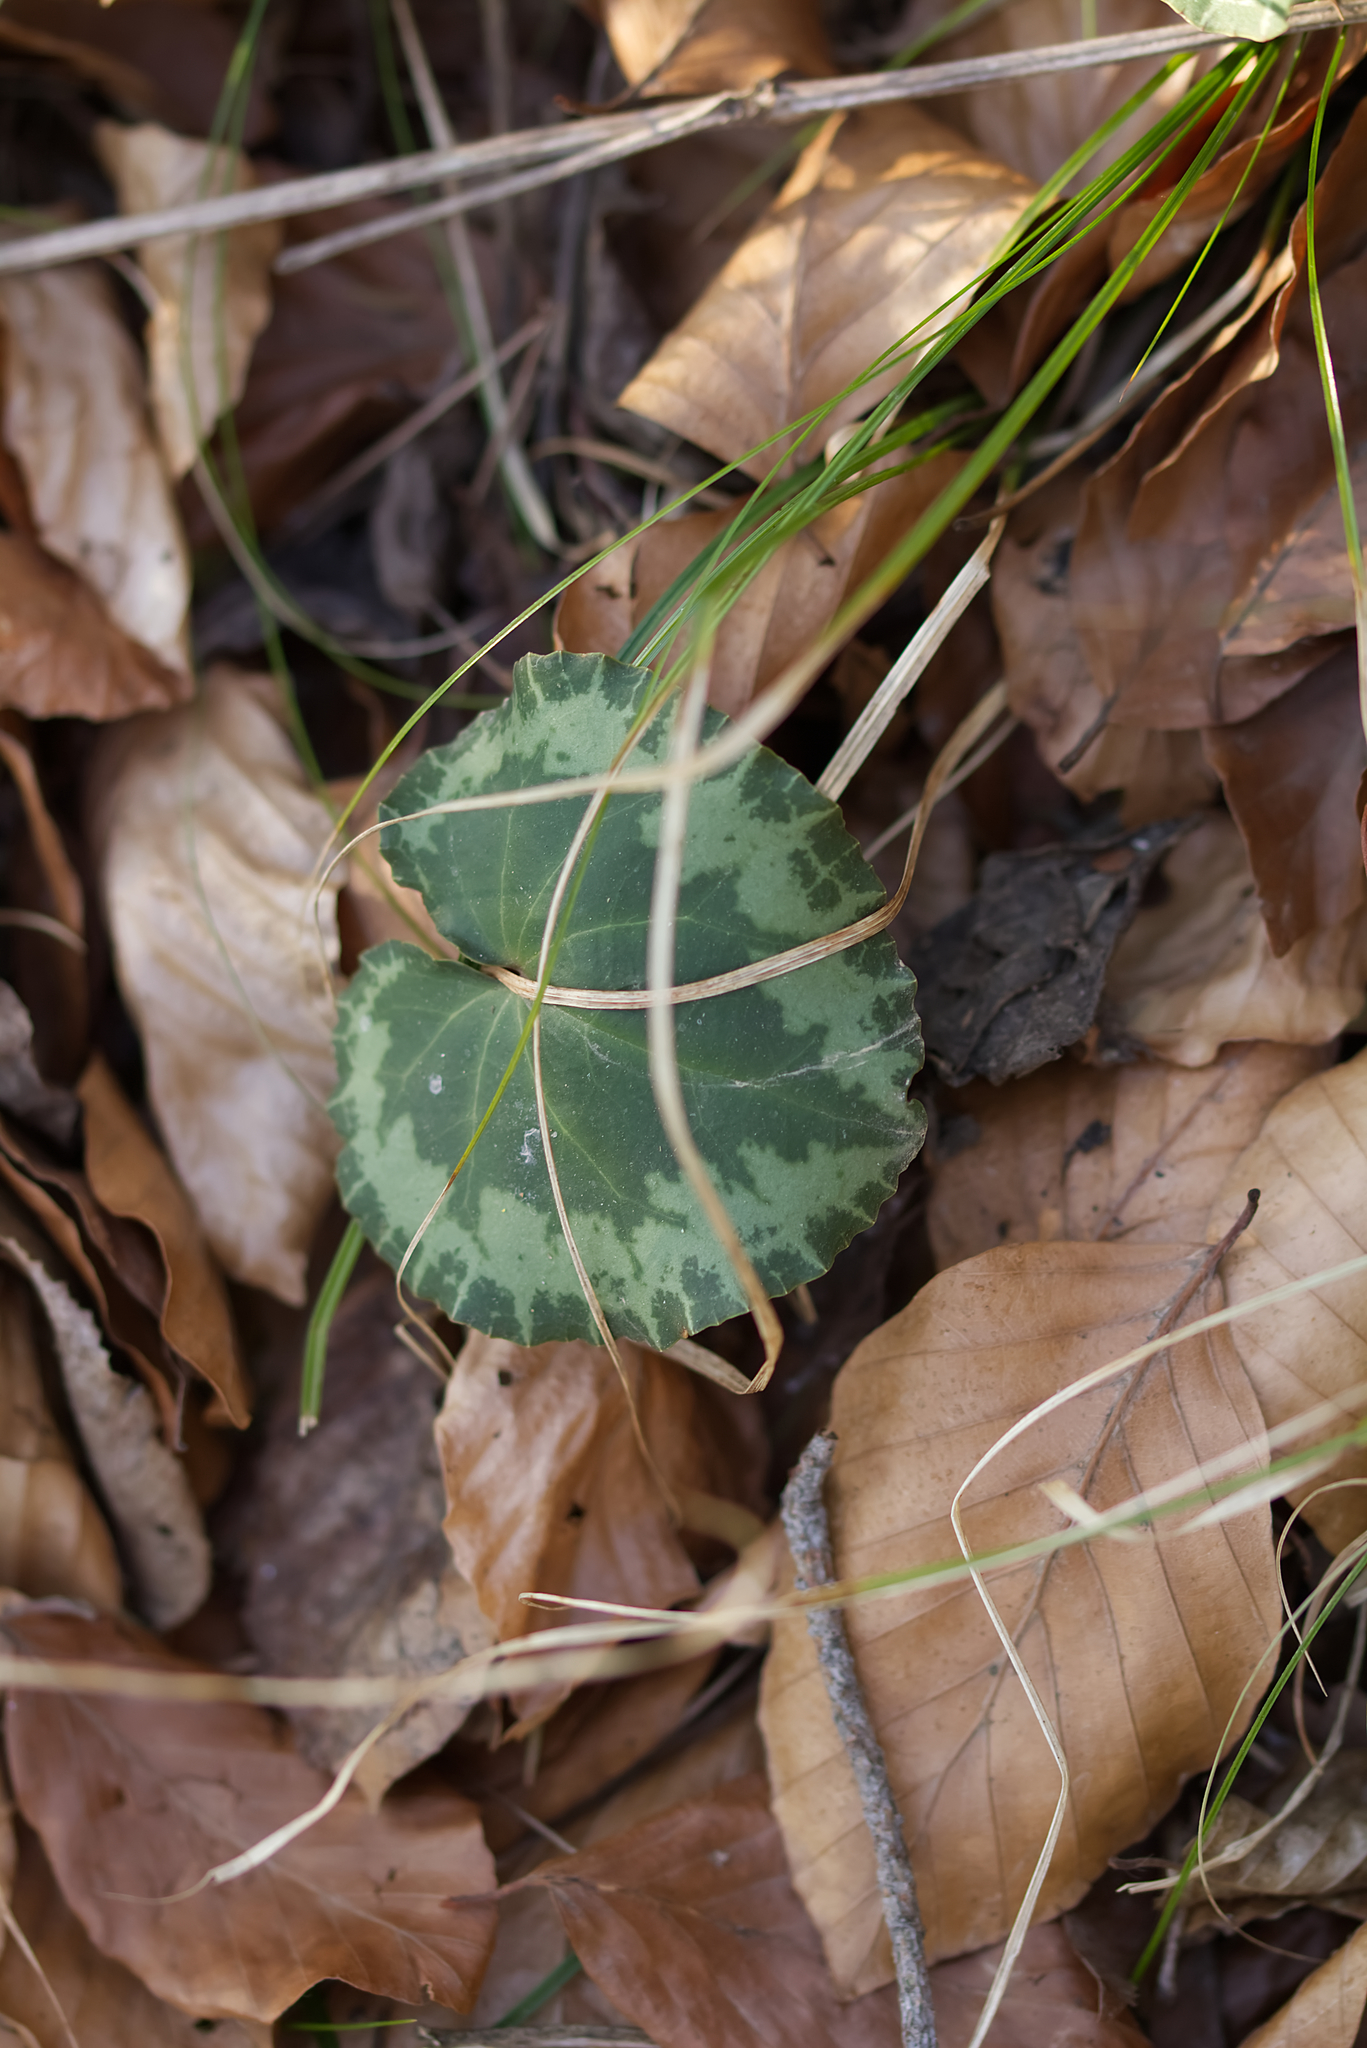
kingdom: Plantae
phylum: Tracheophyta
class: Magnoliopsida
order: Ericales
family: Primulaceae
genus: Cyclamen
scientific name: Cyclamen purpurascens
